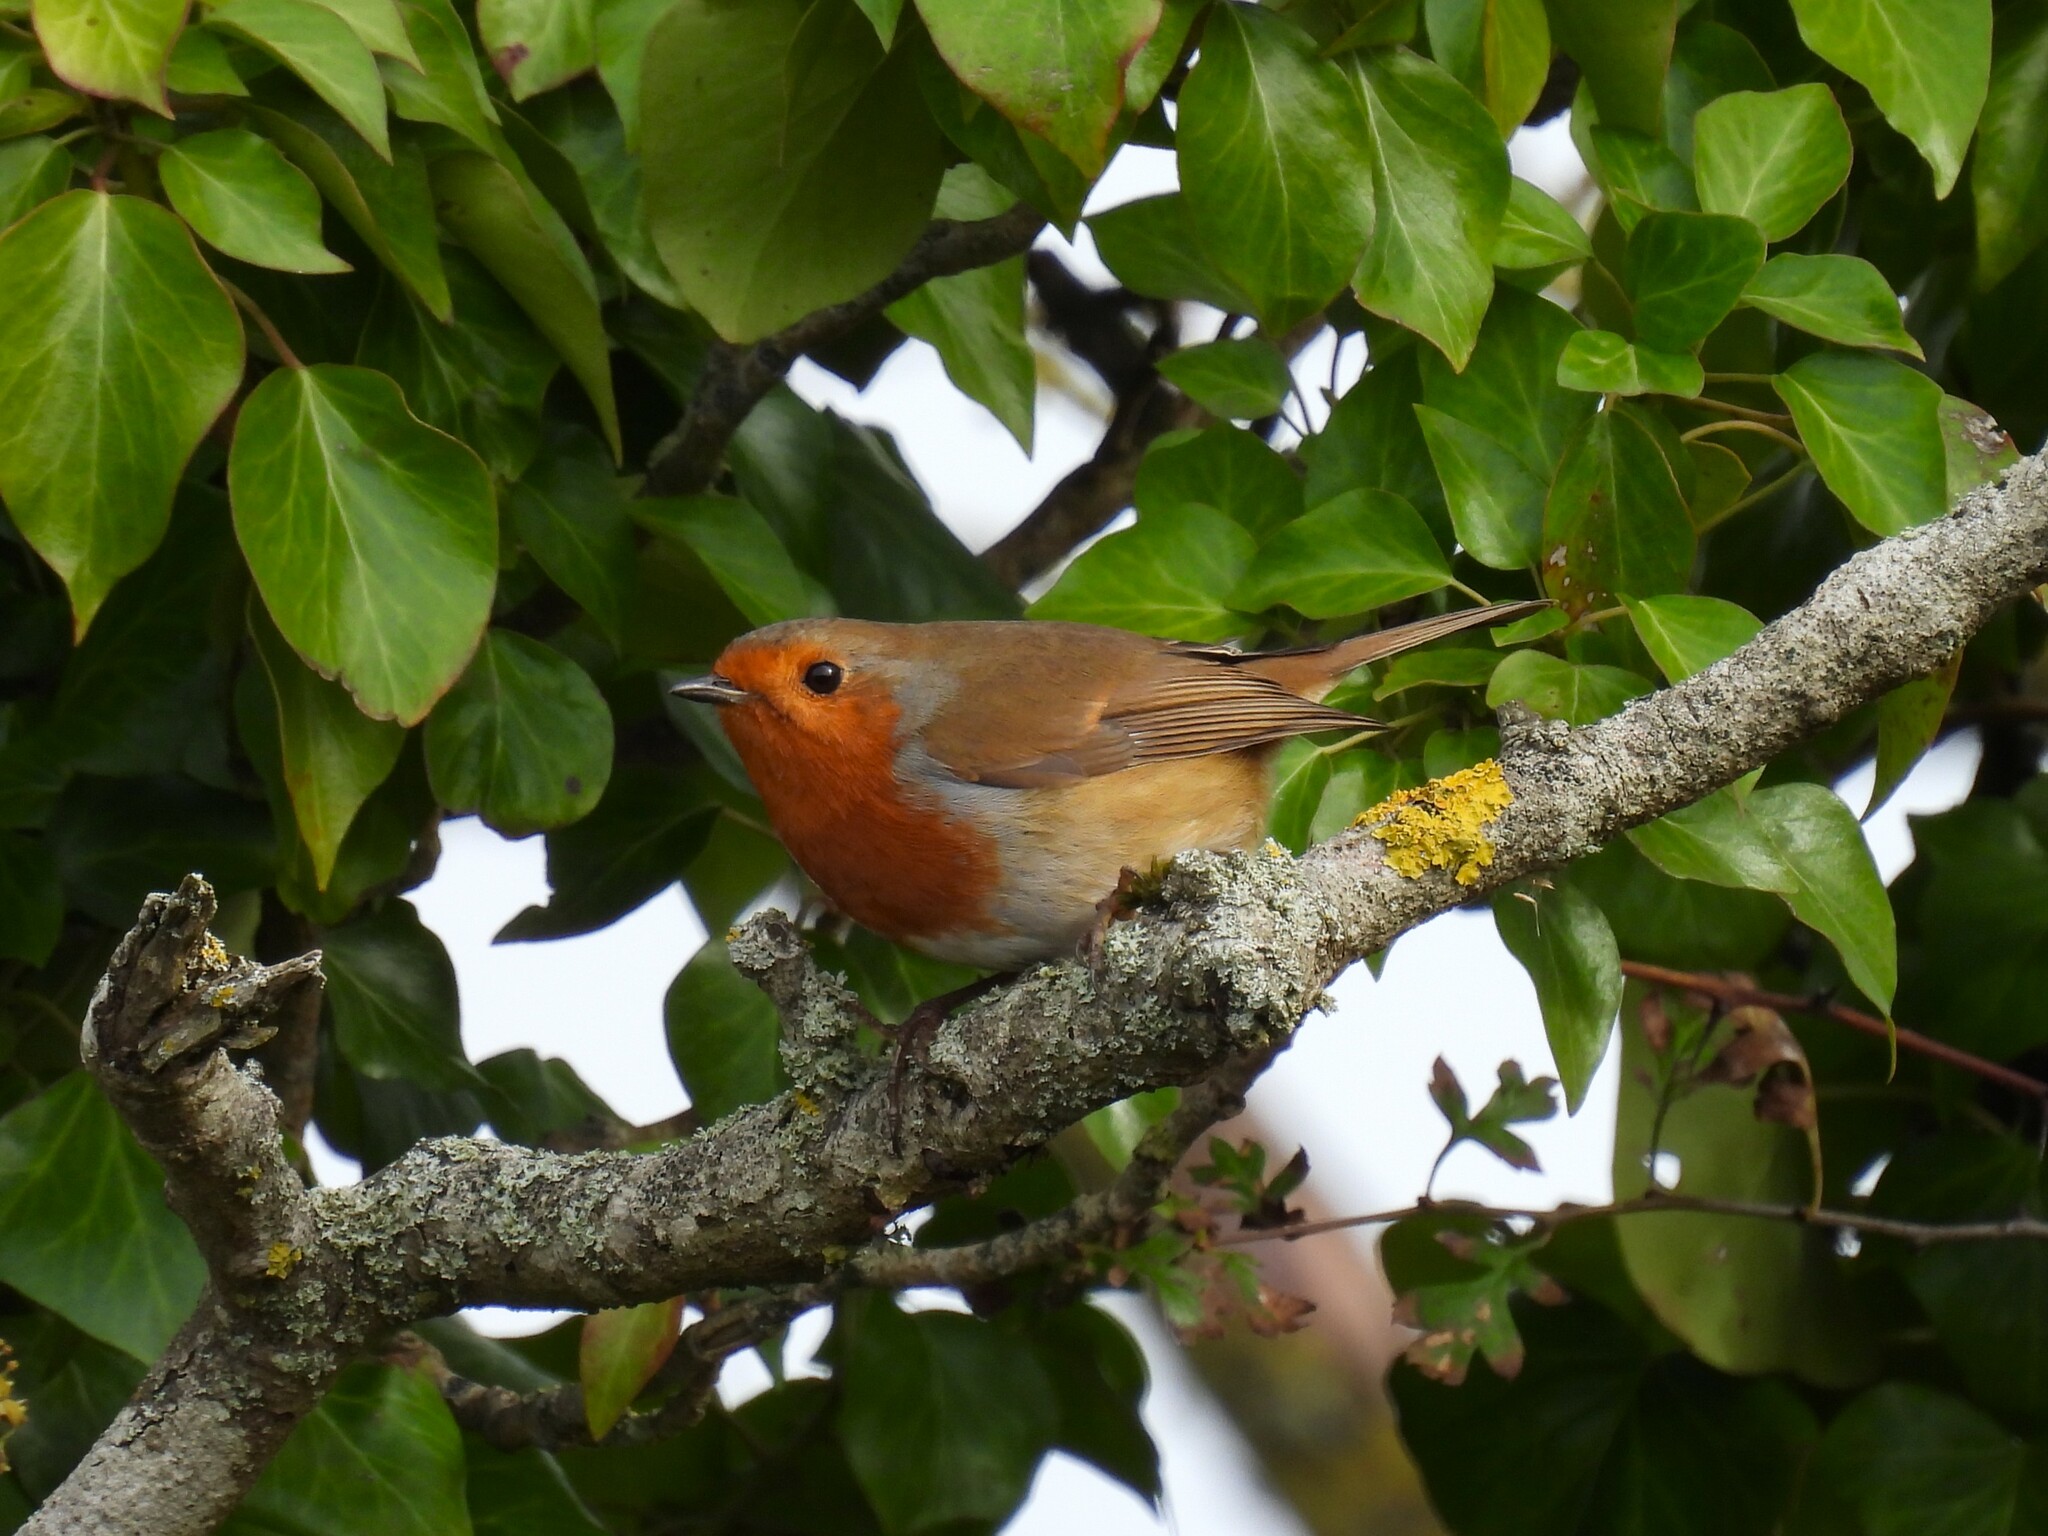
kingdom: Animalia
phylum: Chordata
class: Aves
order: Passeriformes
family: Muscicapidae
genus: Erithacus
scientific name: Erithacus rubecula
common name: European robin
